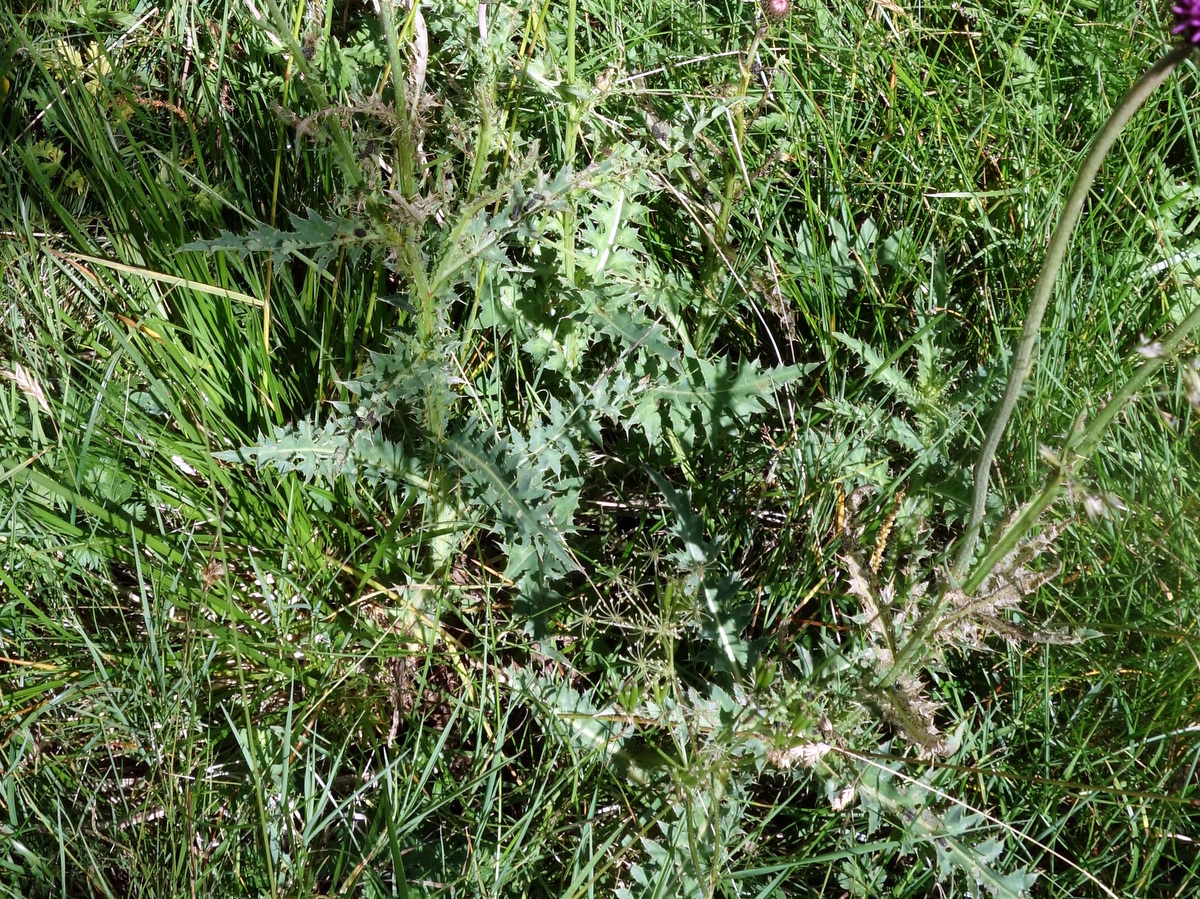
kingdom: Plantae
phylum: Tracheophyta
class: Magnoliopsida
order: Asterales
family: Asteraceae
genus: Carduus
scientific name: Carduus defloratus
